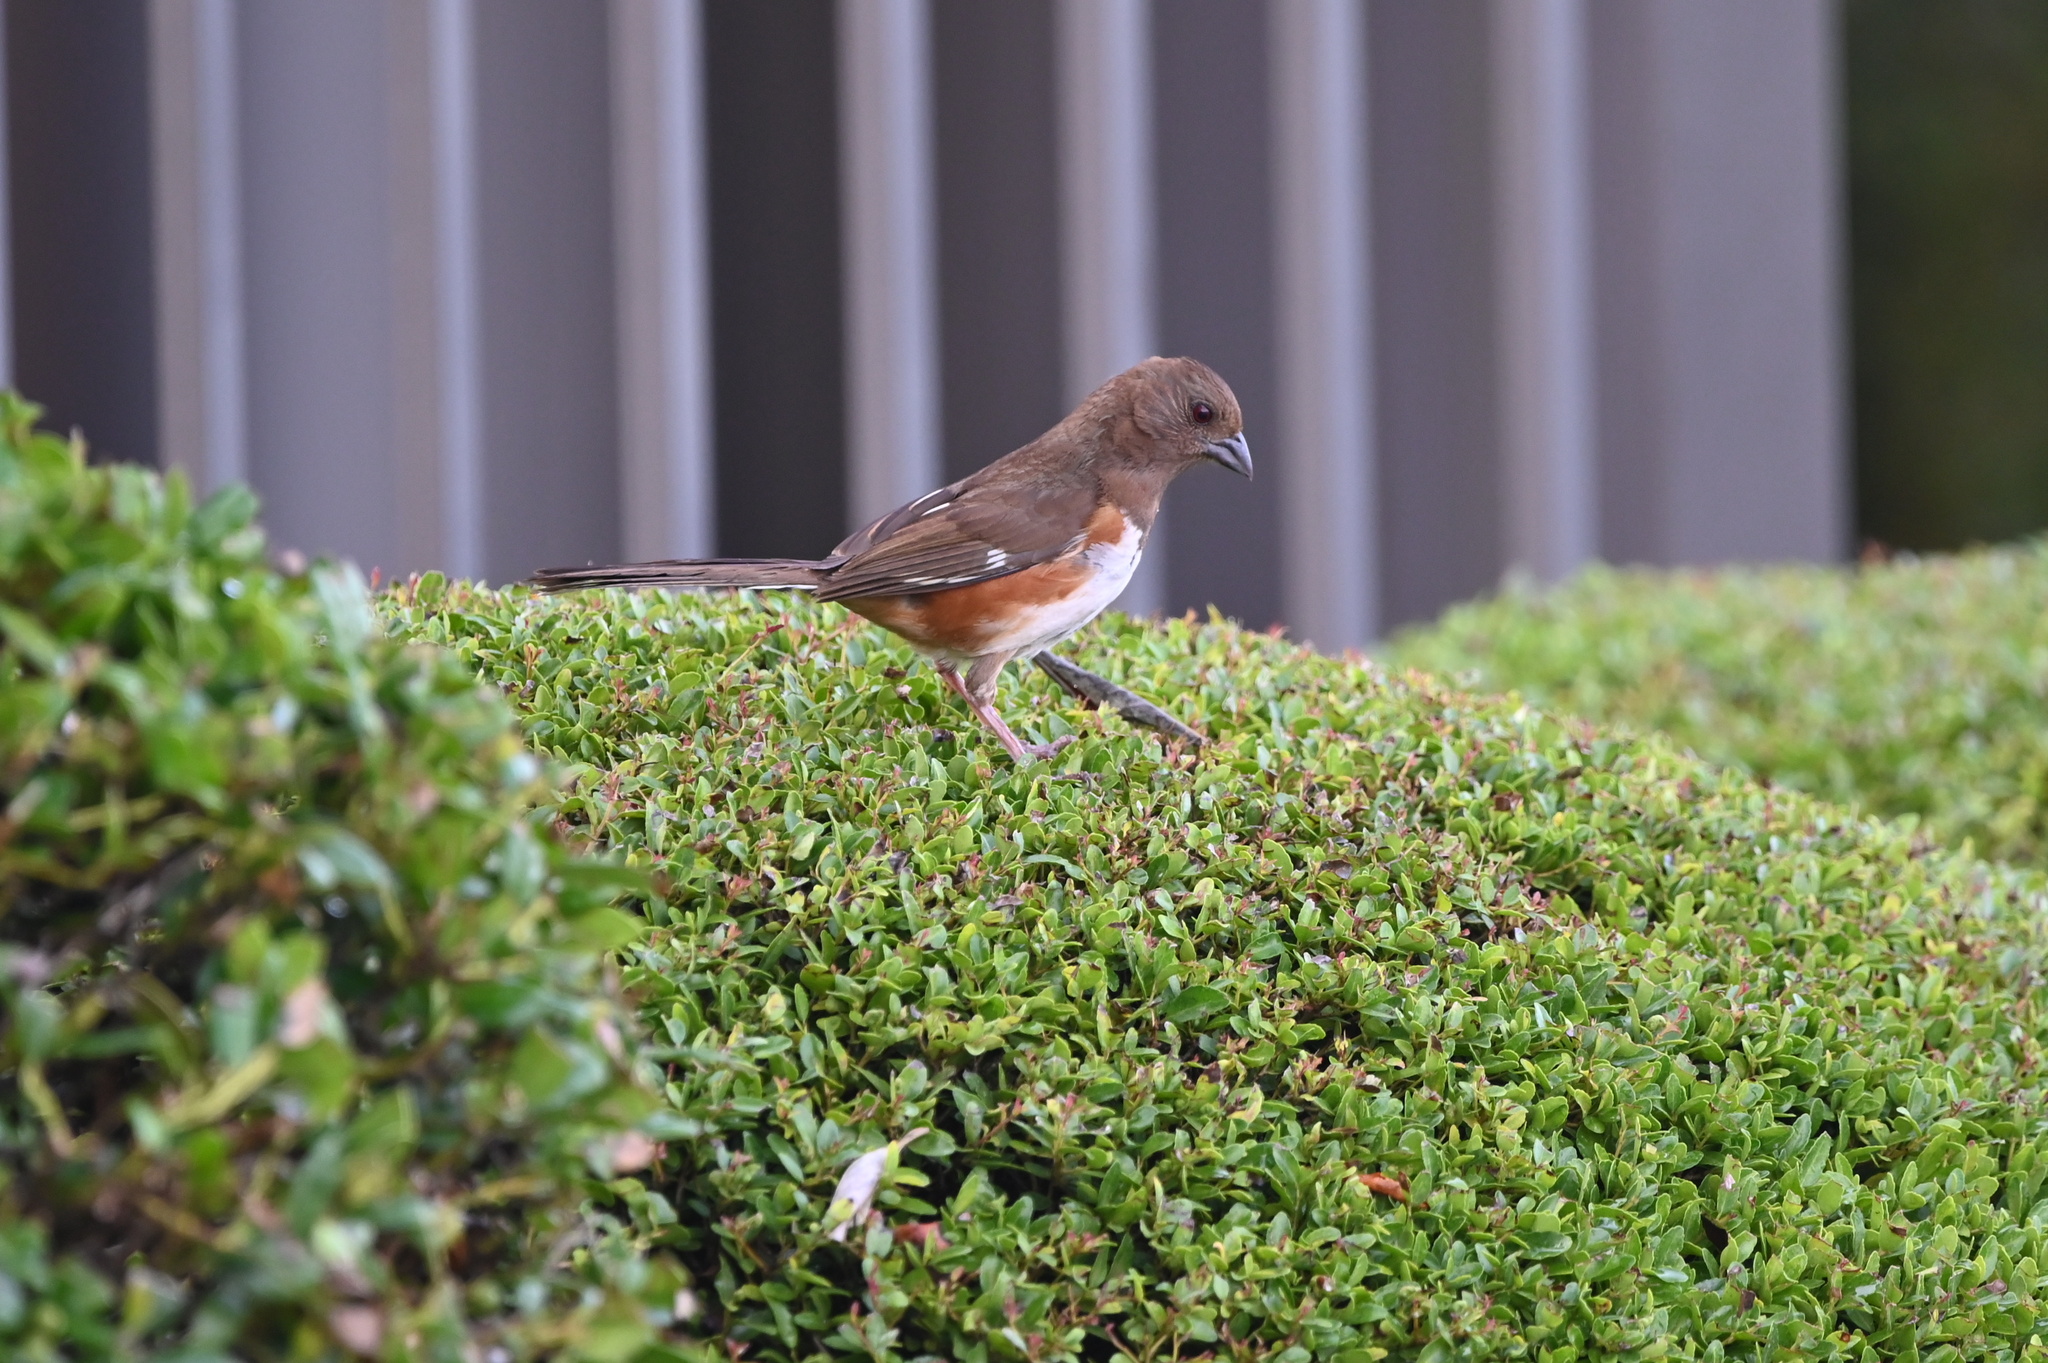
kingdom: Animalia
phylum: Chordata
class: Aves
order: Passeriformes
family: Passerellidae
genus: Pipilo
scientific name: Pipilo erythrophthalmus
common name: Eastern towhee
